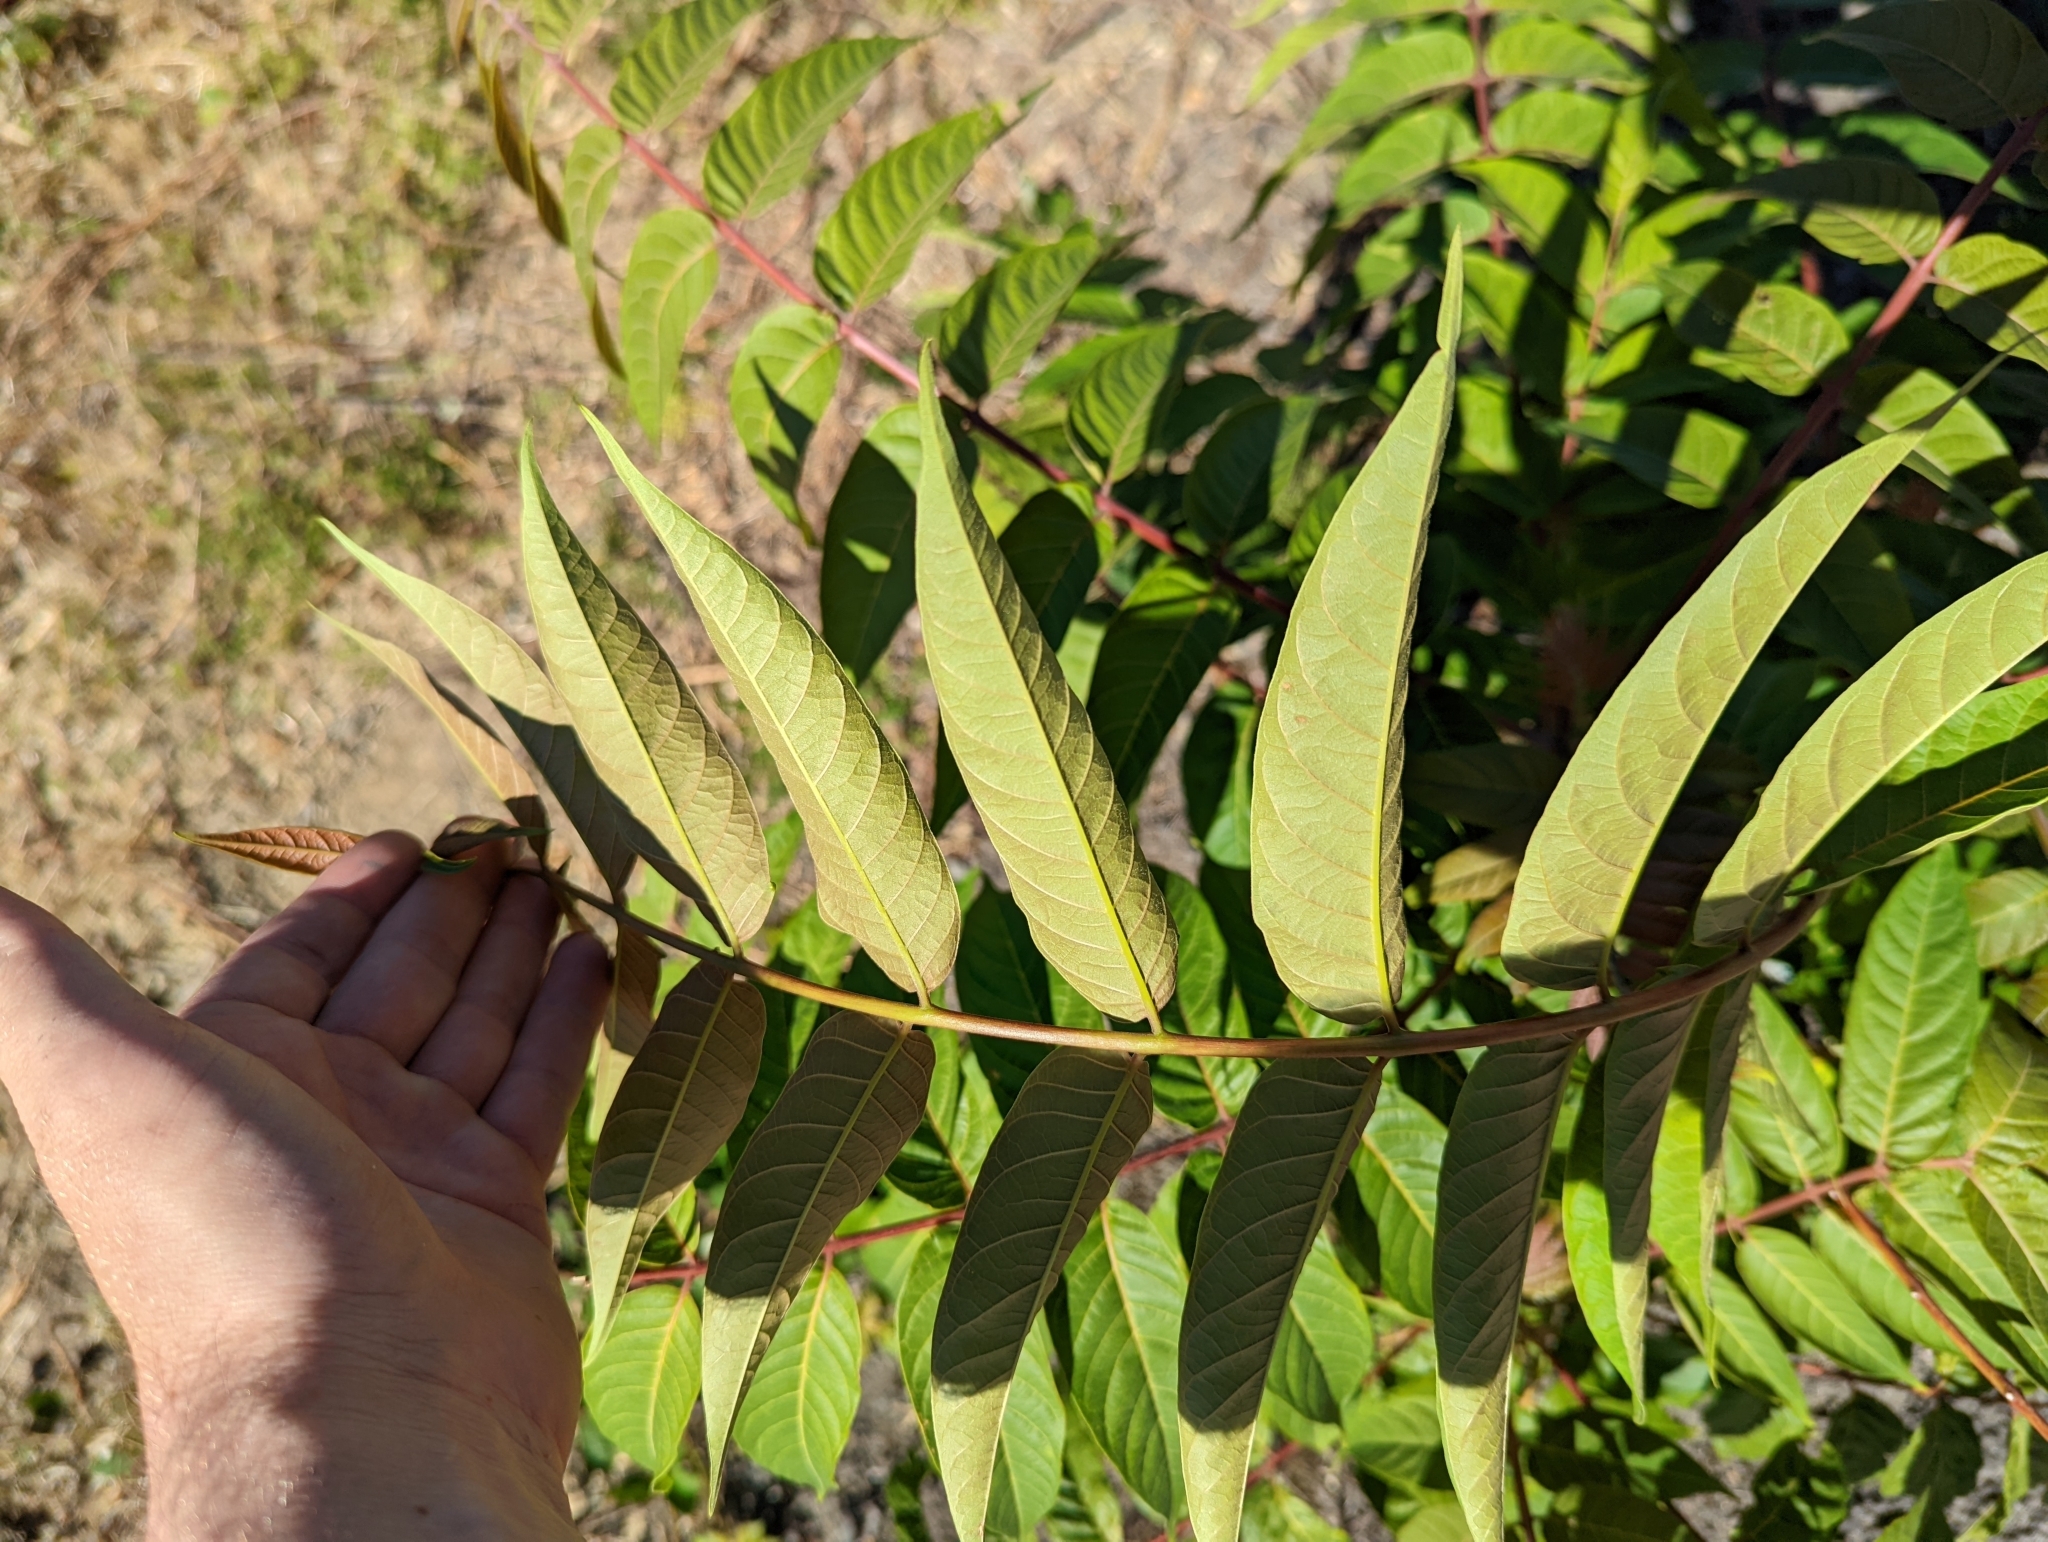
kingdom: Plantae
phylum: Tracheophyta
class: Magnoliopsida
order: Sapindales
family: Simaroubaceae
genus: Ailanthus
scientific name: Ailanthus altissima
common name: Tree-of-heaven
